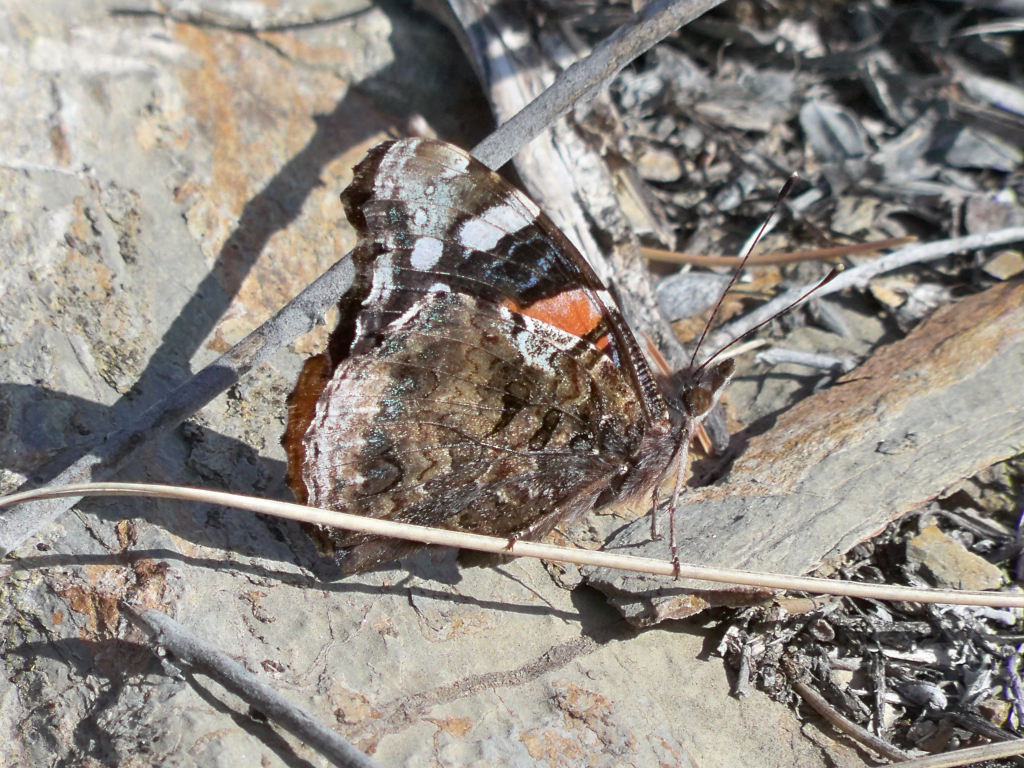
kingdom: Animalia
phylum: Arthropoda
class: Insecta
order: Lepidoptera
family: Nymphalidae
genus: Vanessa
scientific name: Vanessa atalanta
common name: Red admiral
